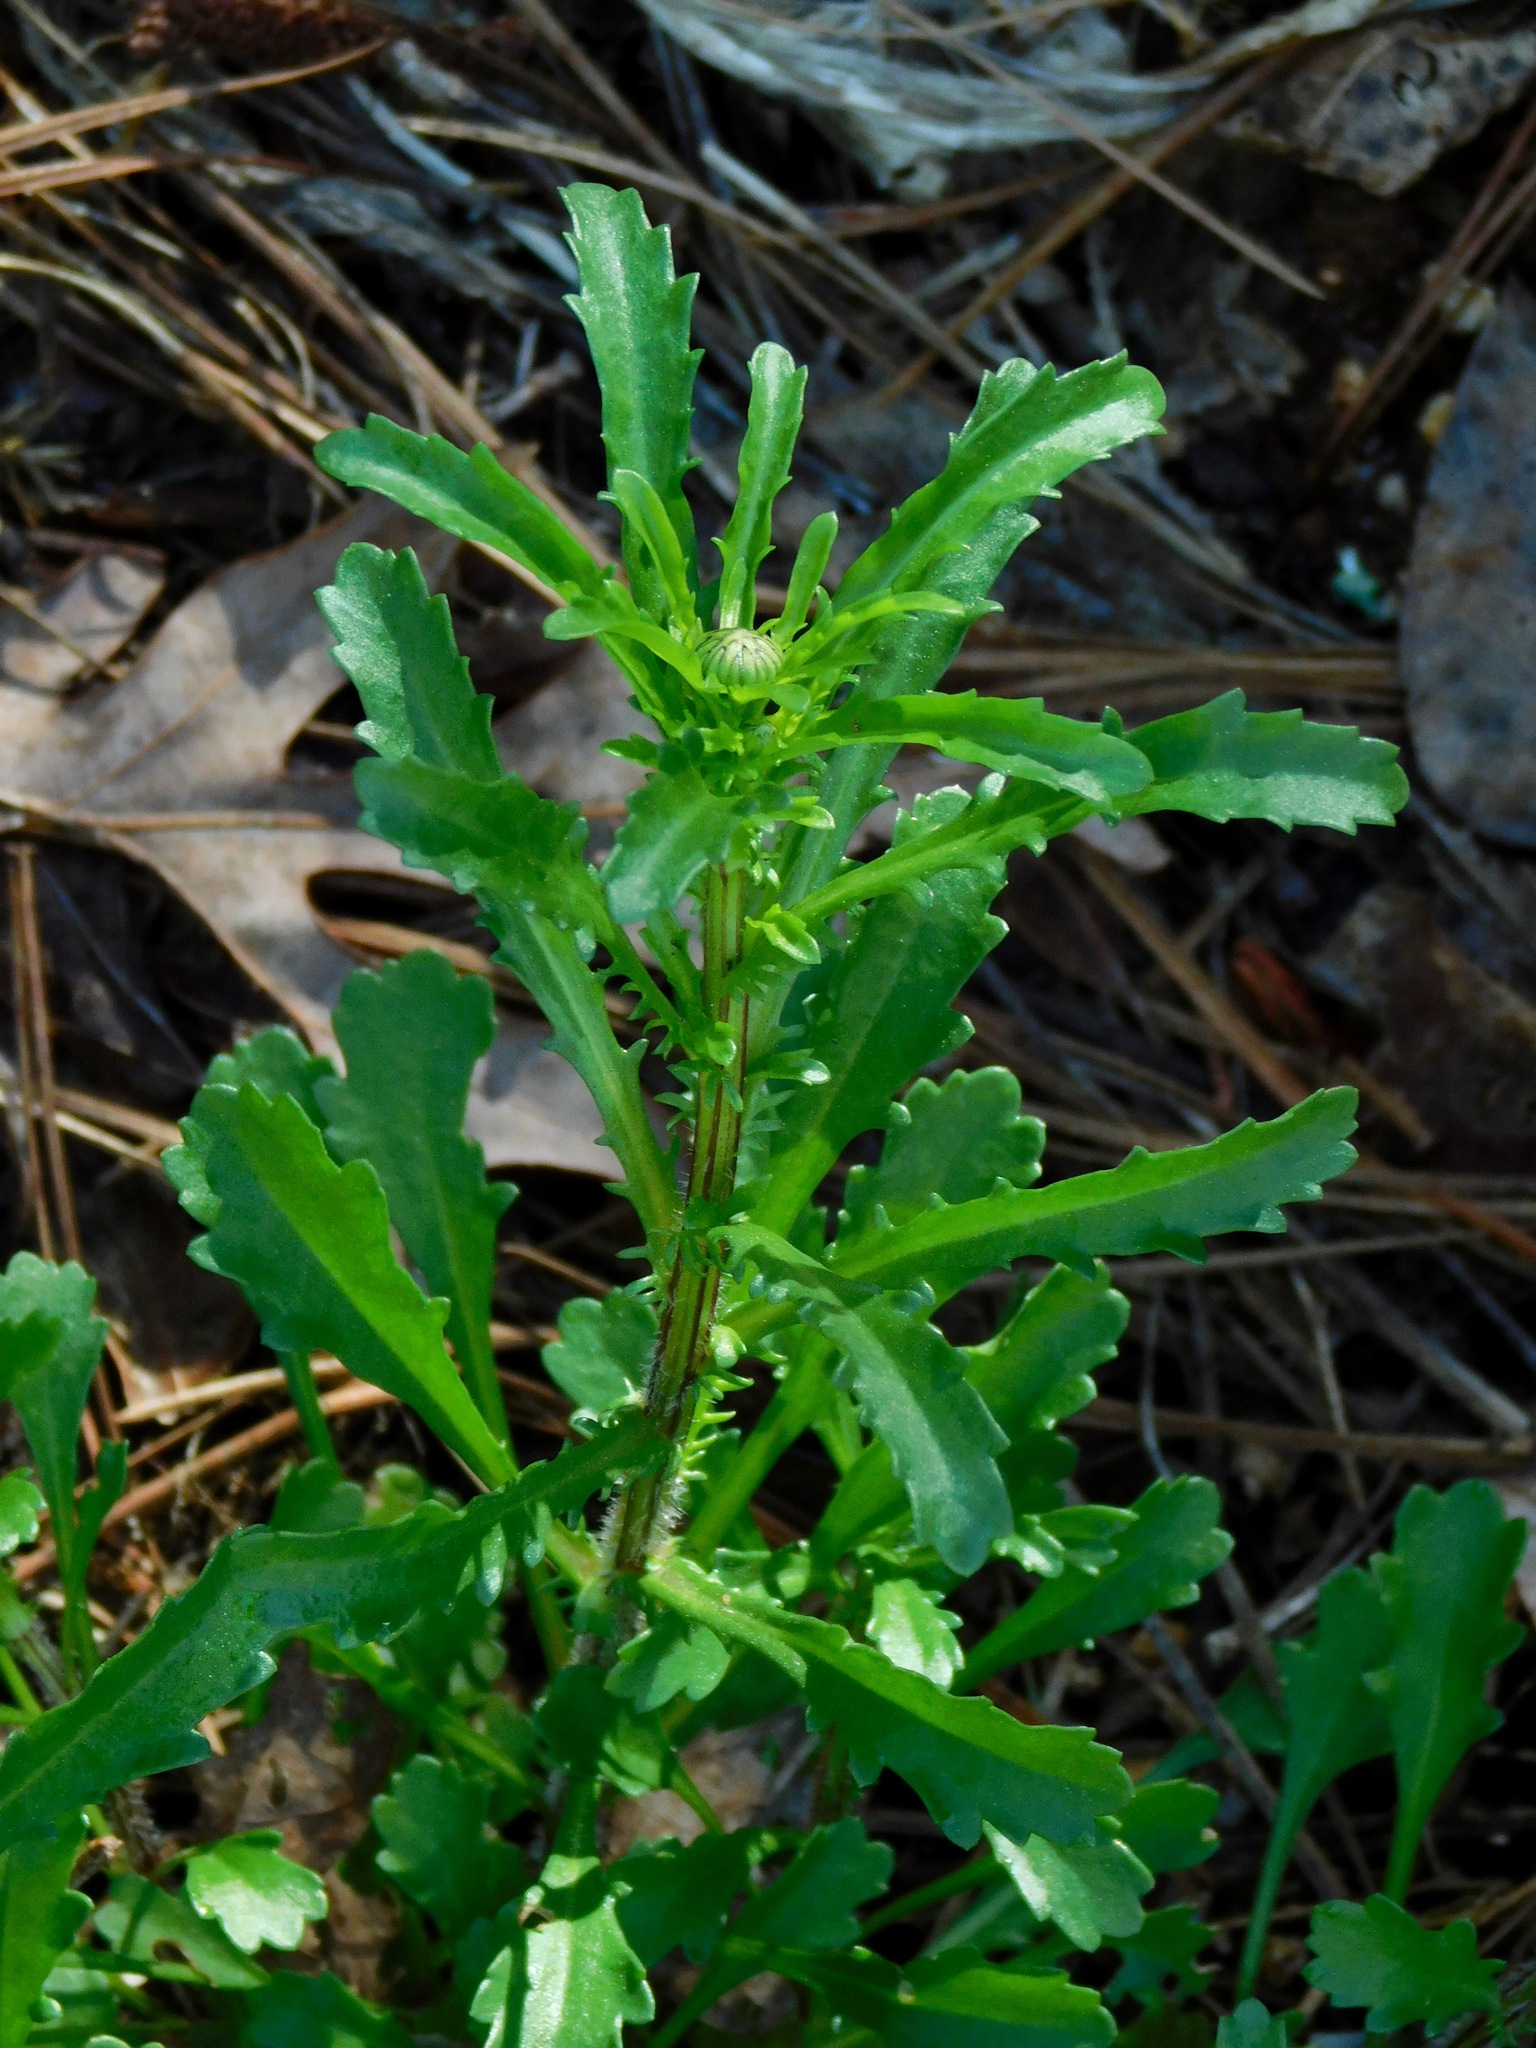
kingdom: Plantae
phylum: Tracheophyta
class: Magnoliopsida
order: Asterales
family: Asteraceae
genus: Leucanthemum
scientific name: Leucanthemum vulgare
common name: Oxeye daisy
